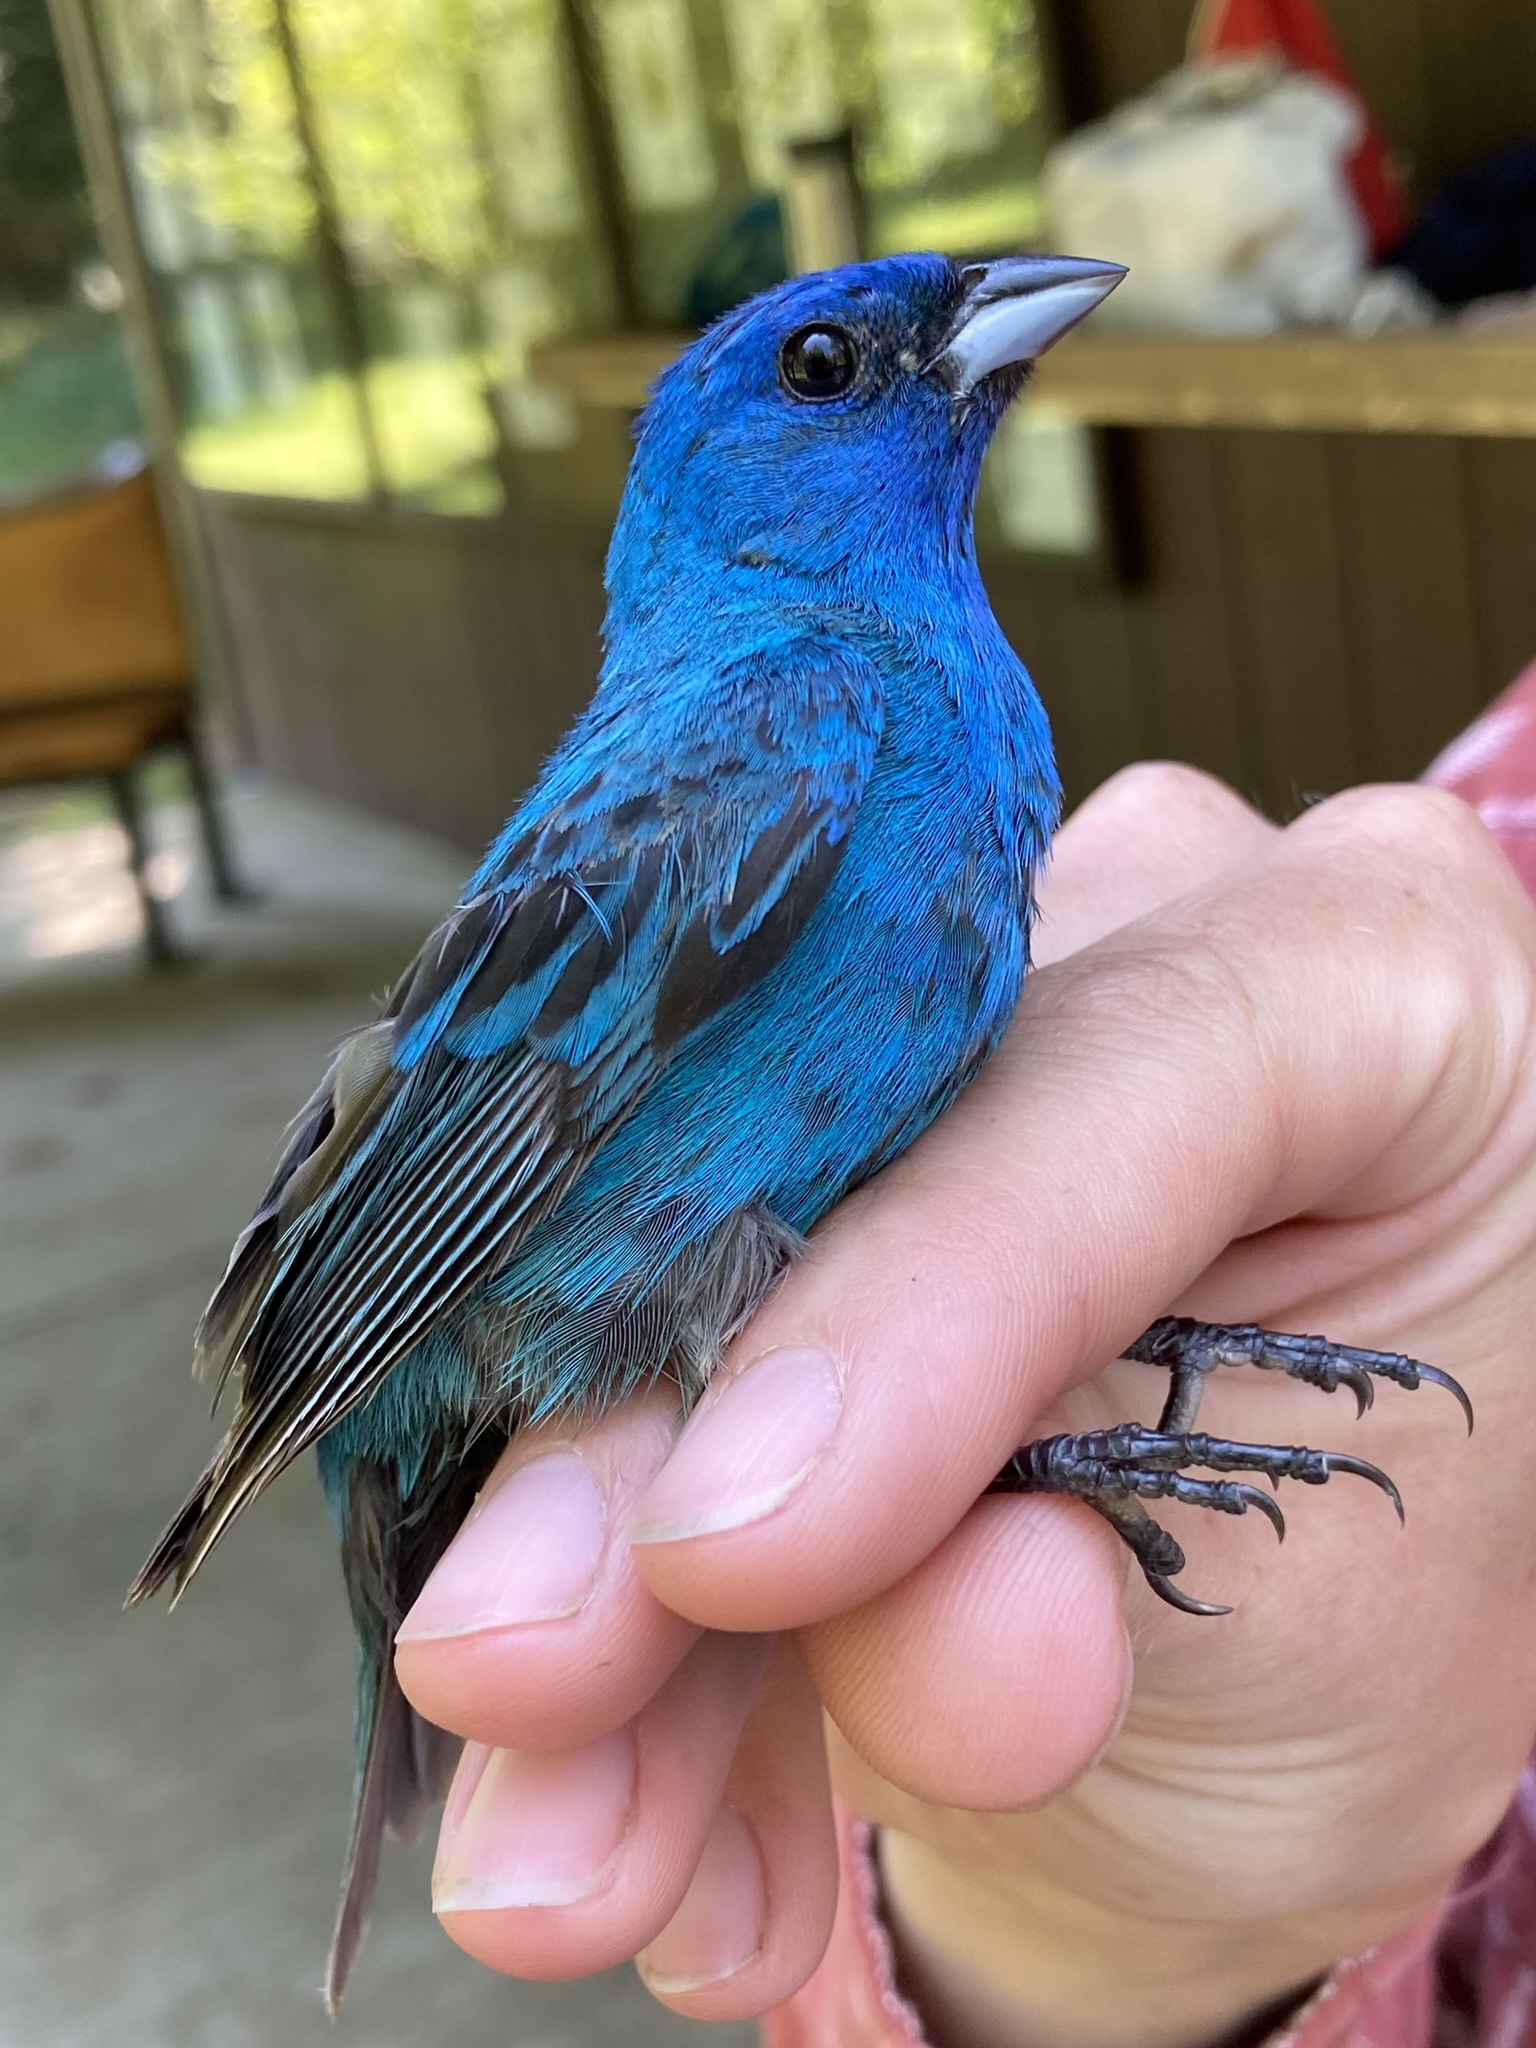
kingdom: Animalia
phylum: Chordata
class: Aves
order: Passeriformes
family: Cardinalidae
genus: Passerina
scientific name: Passerina cyanea
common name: Indigo bunting
